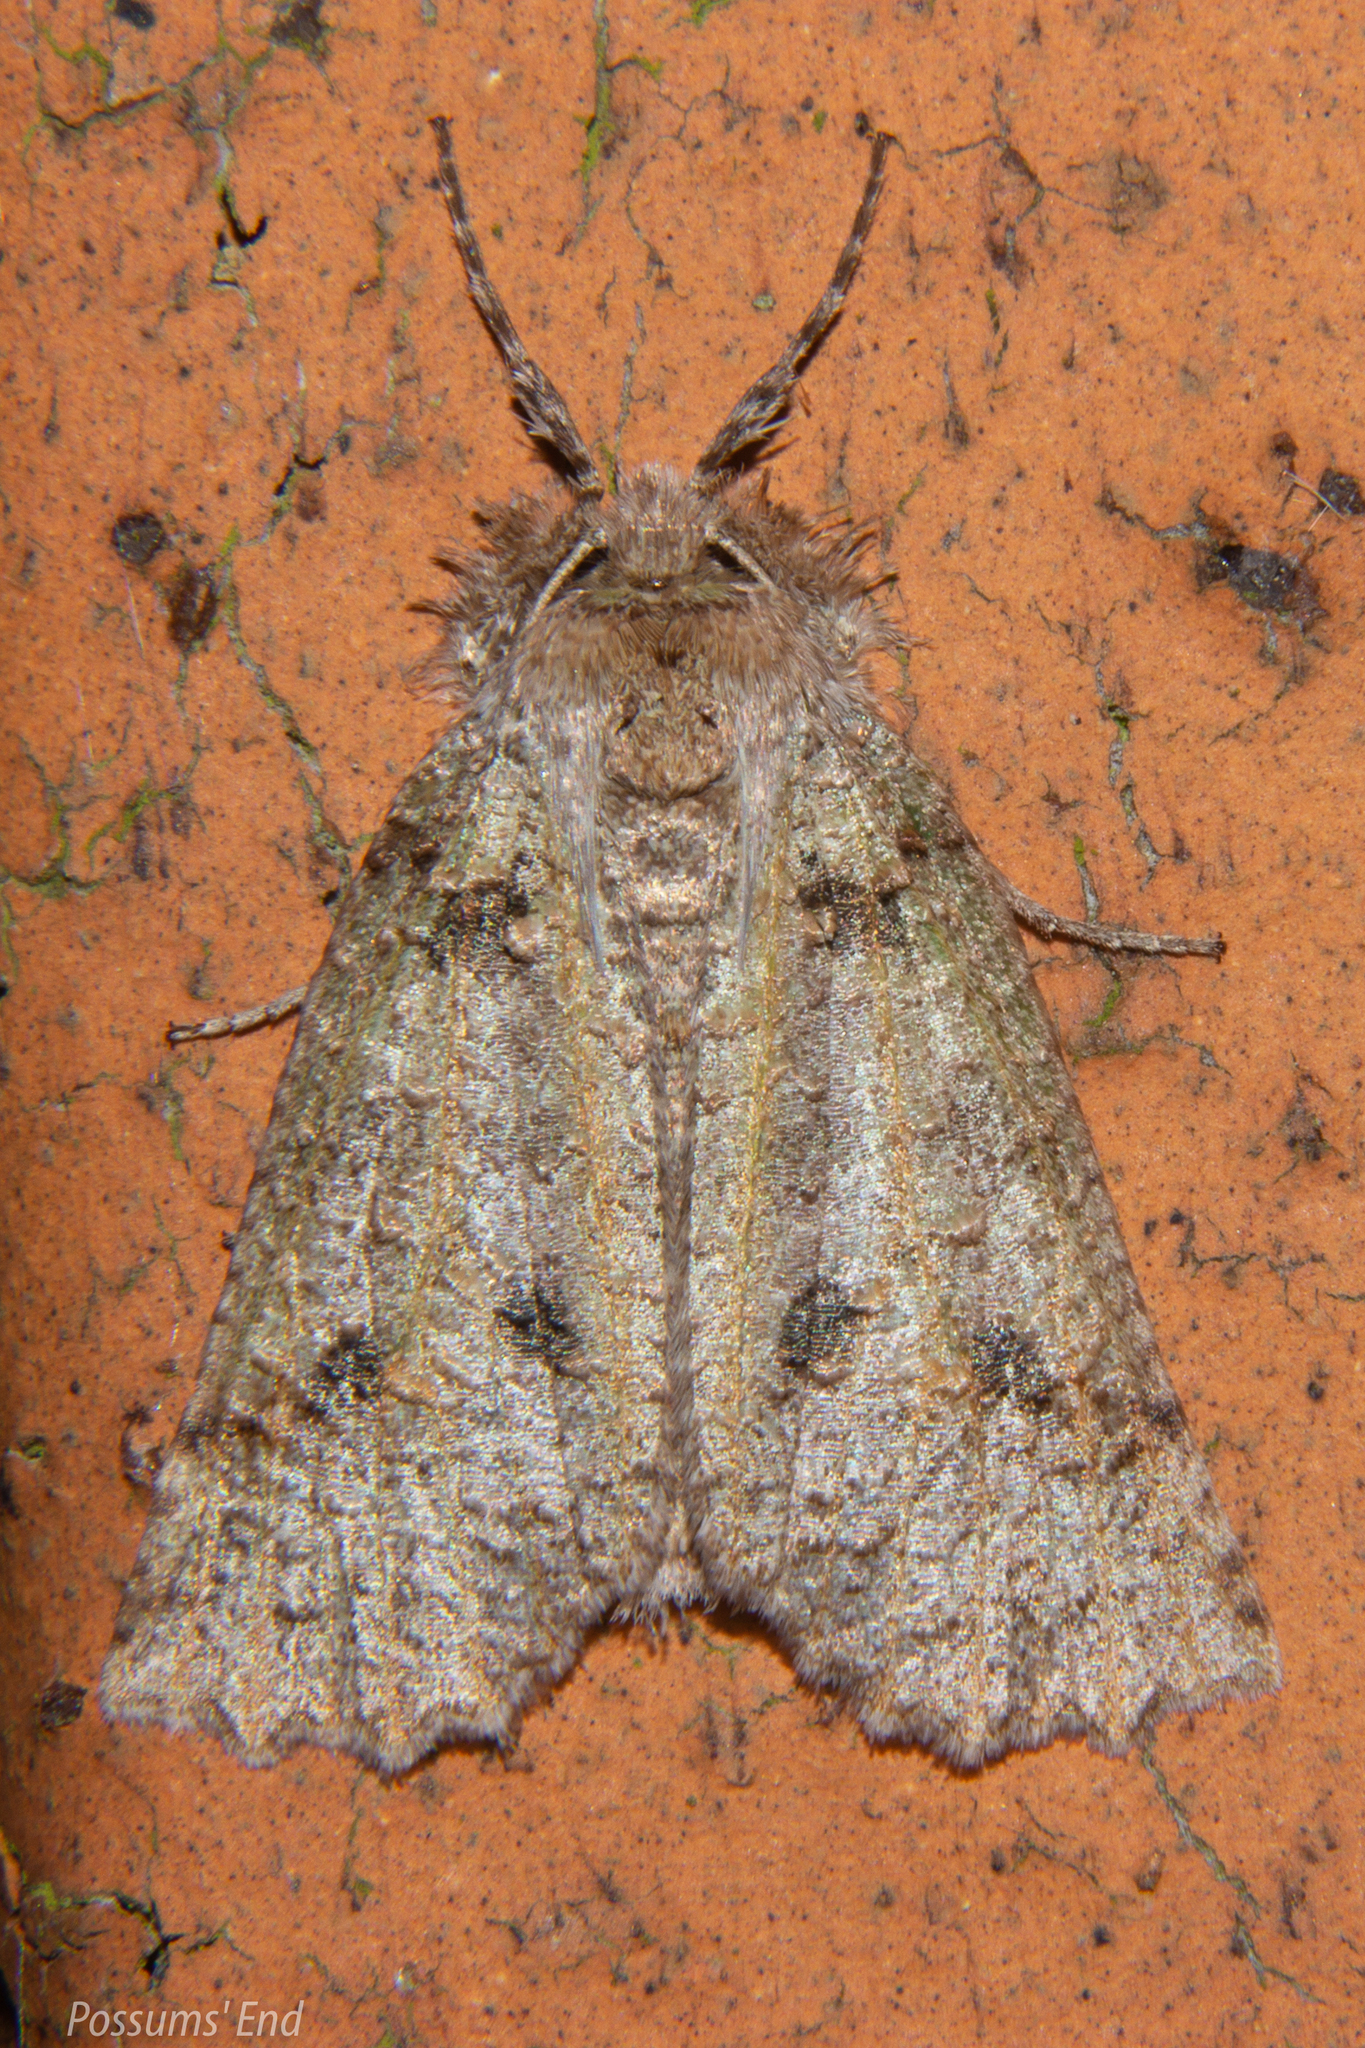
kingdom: Animalia
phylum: Arthropoda
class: Insecta
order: Lepidoptera
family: Geometridae
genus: Declana
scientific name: Declana floccosa
